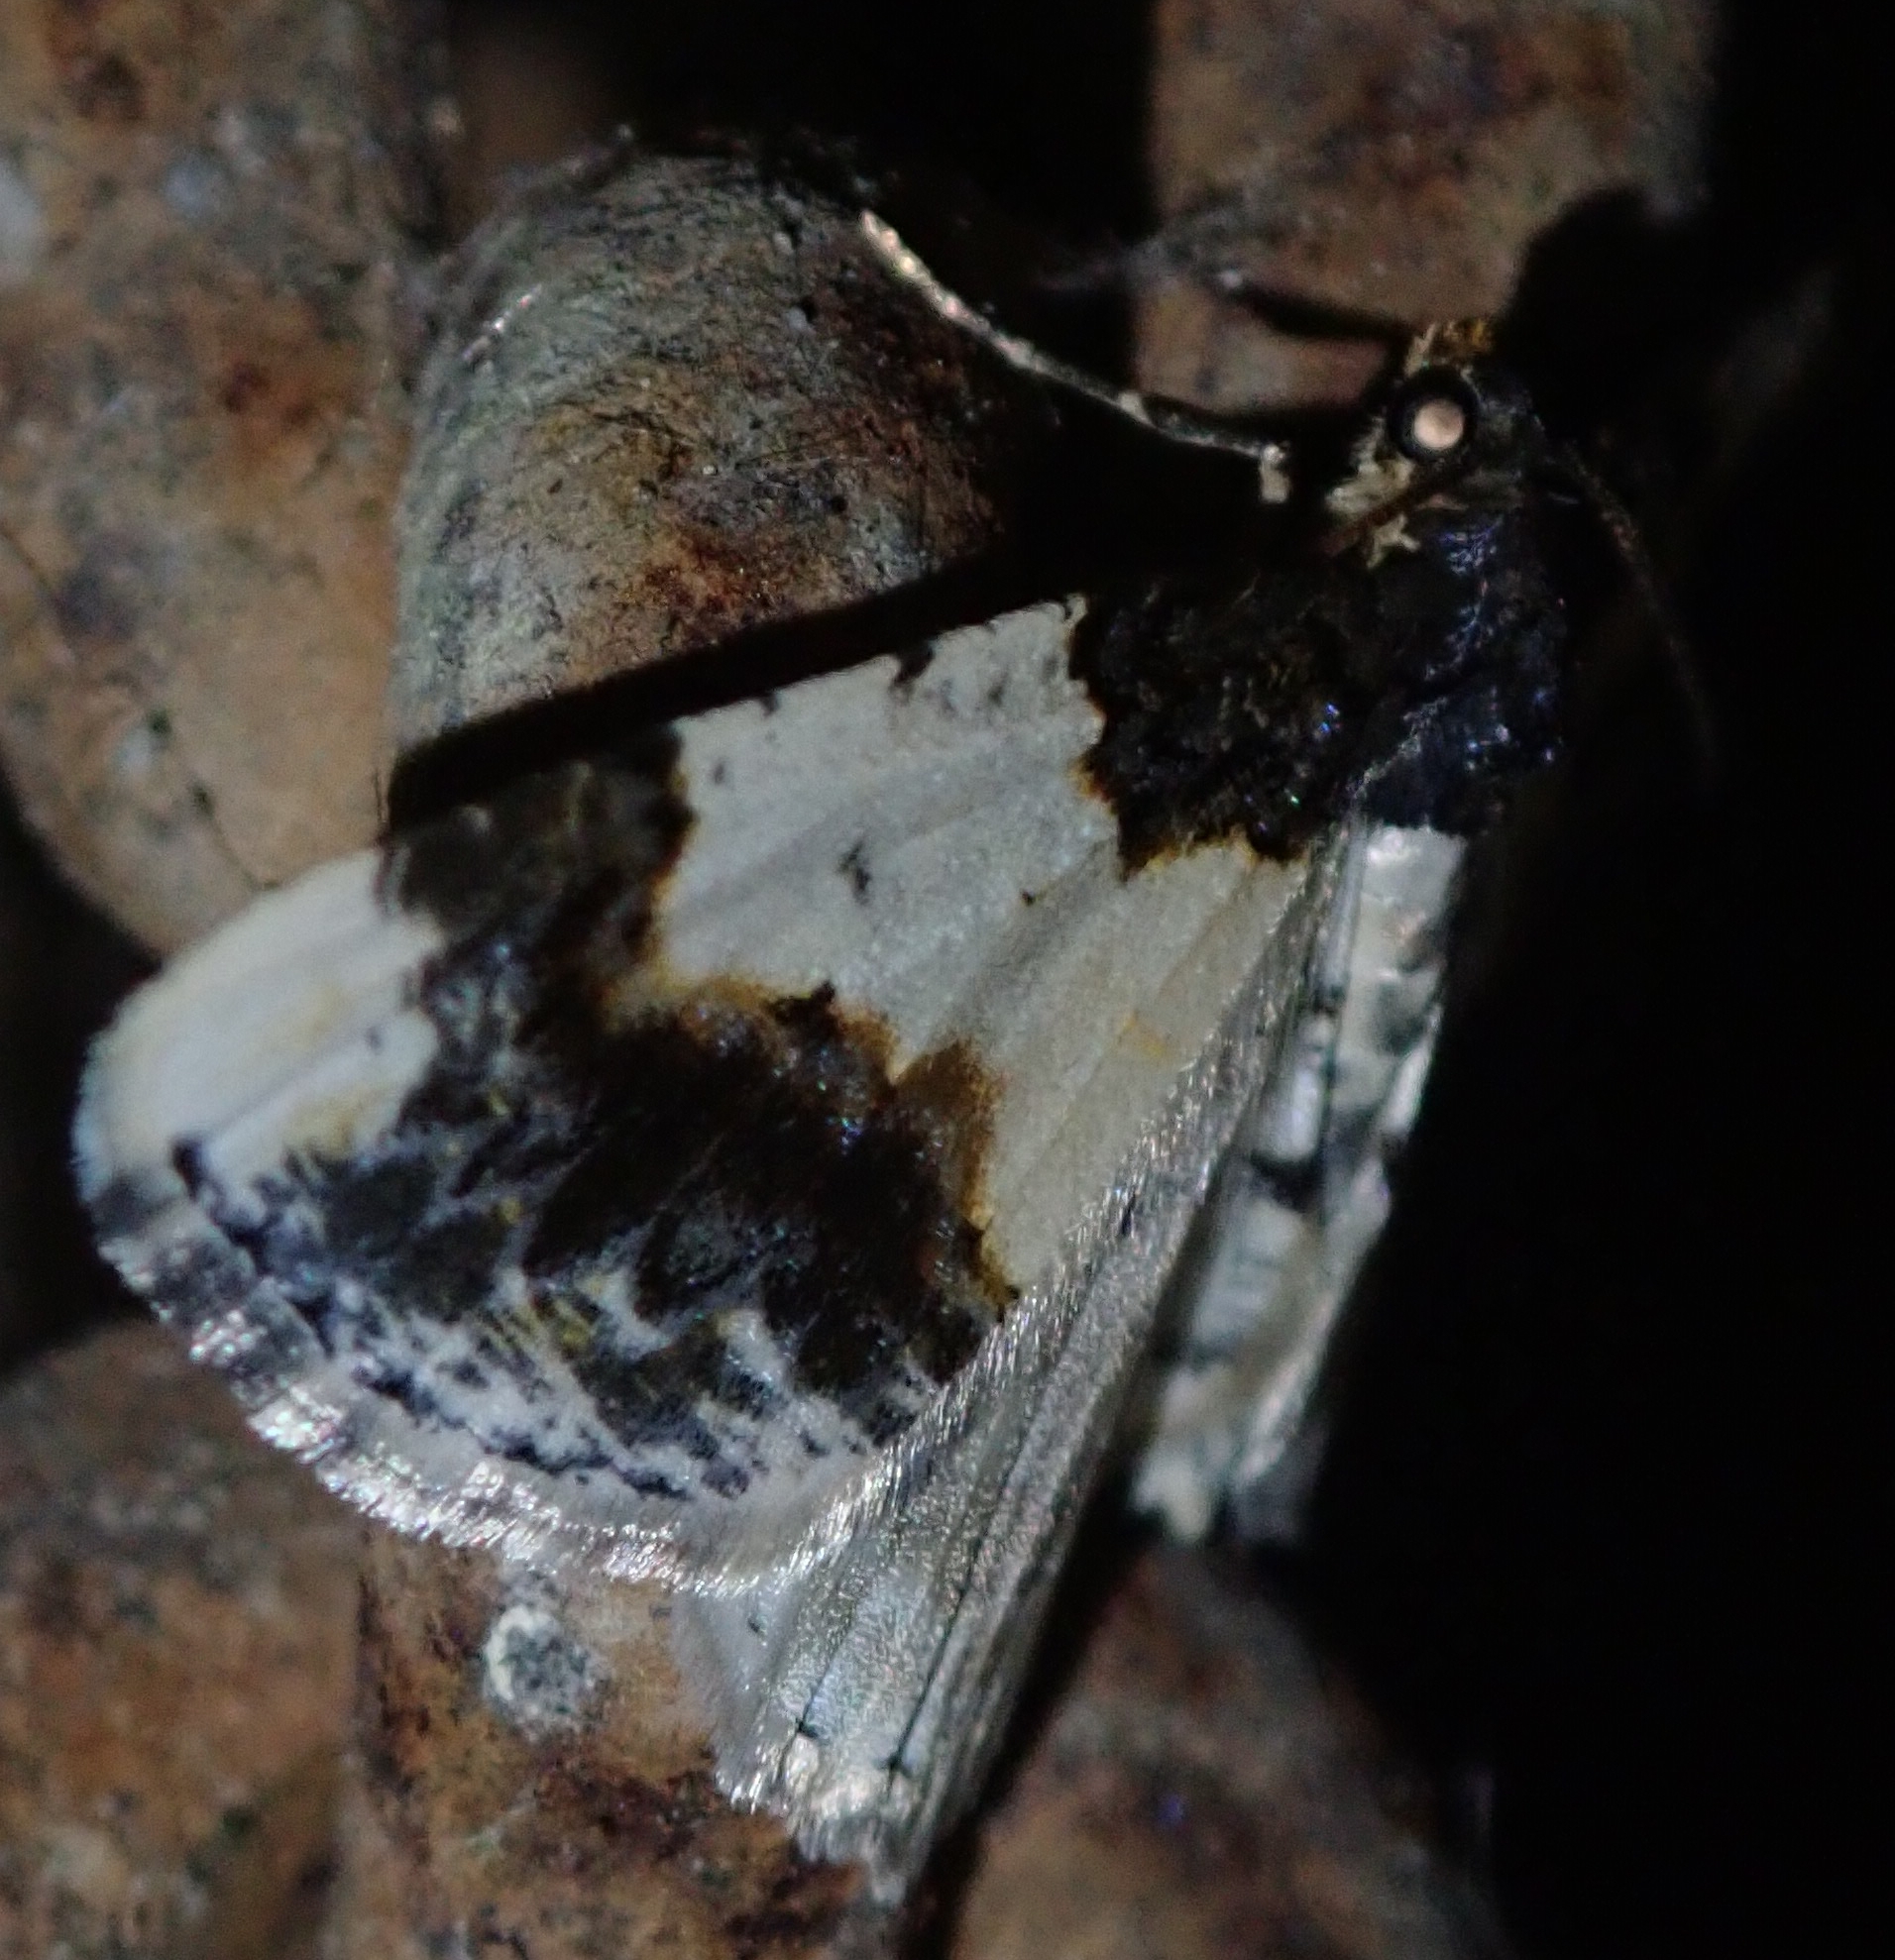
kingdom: Animalia
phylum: Arthropoda
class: Insecta
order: Lepidoptera
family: Geometridae
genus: Ligdia
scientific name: Ligdia adustata
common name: Scorched carpet
